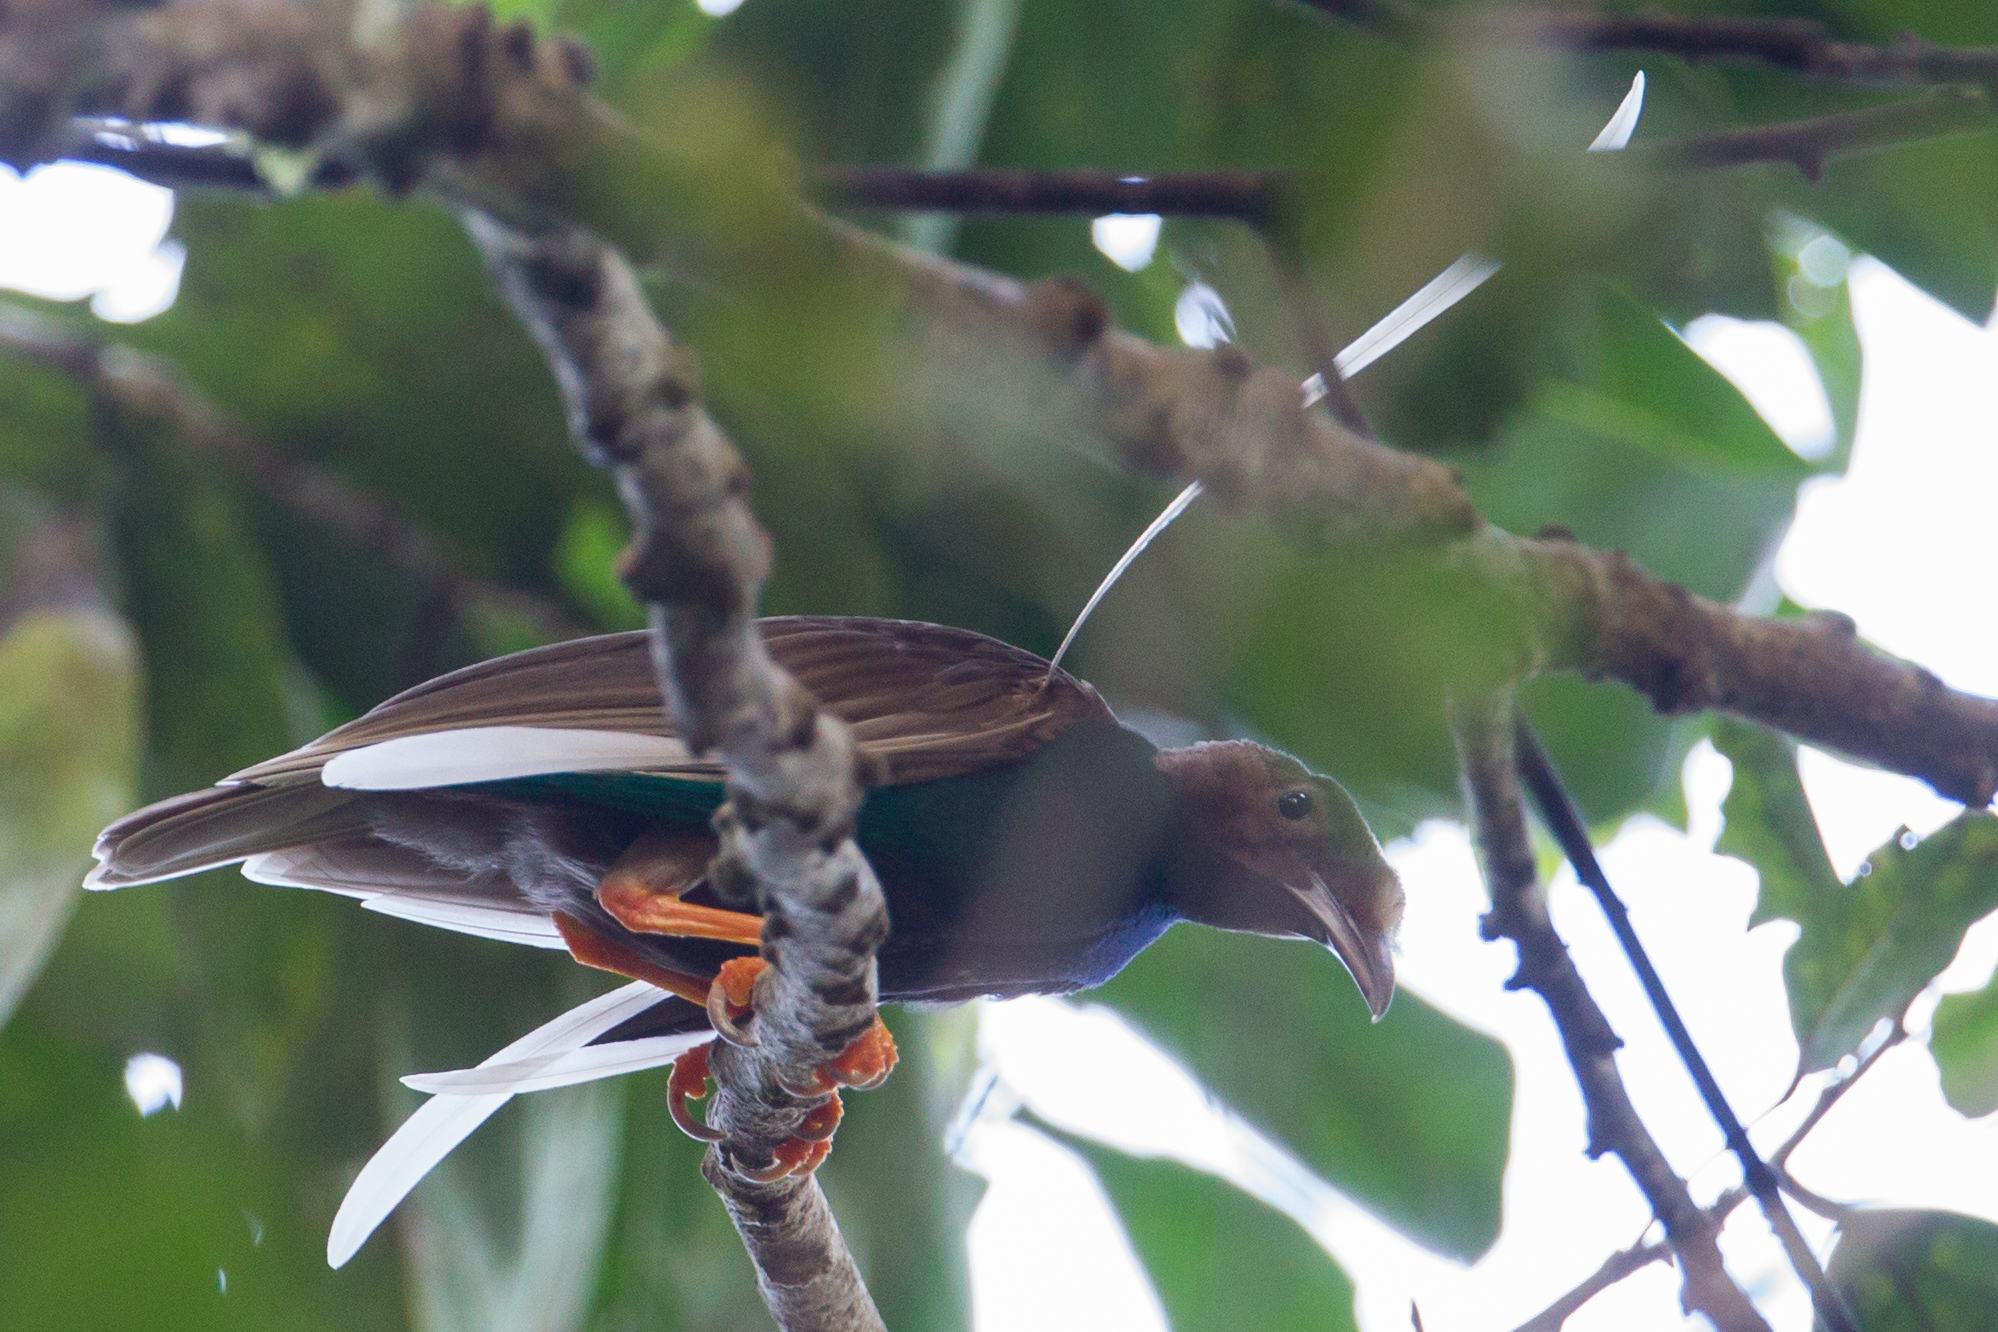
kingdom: Animalia
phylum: Chordata
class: Aves
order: Passeriformes
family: Paradisaeidae
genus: Semioptera
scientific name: Semioptera wallacii
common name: Standardwing
